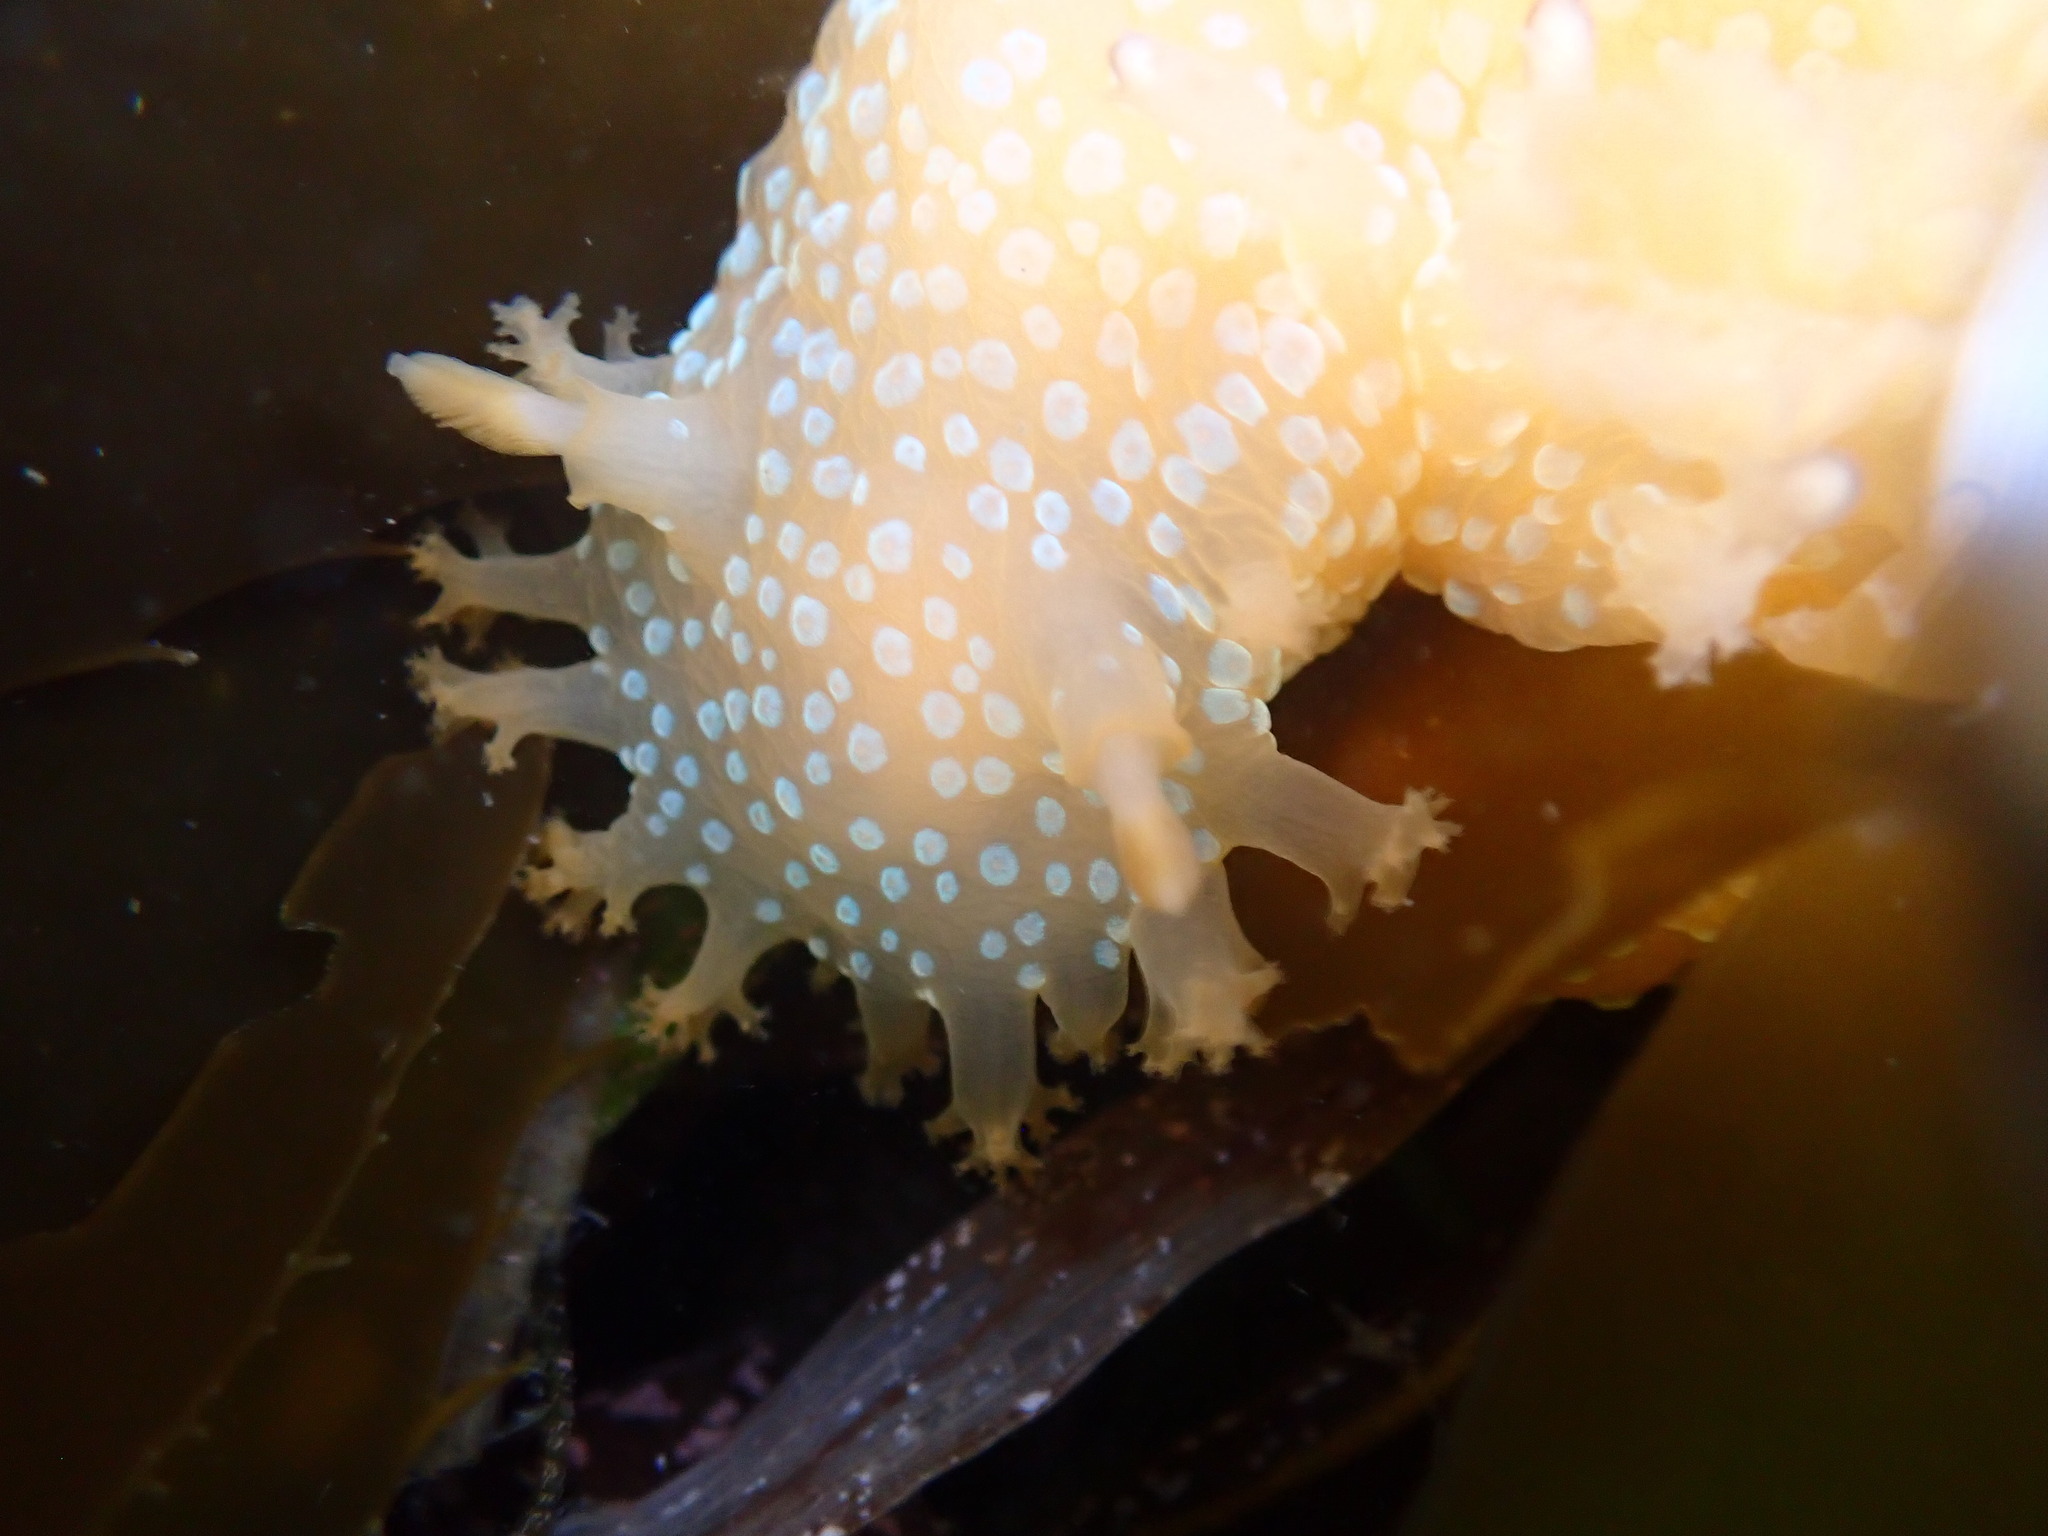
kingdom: Animalia
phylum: Mollusca
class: Gastropoda
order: Nudibranchia
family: Polyceridae
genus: Triopha
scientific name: Triopha maculata
